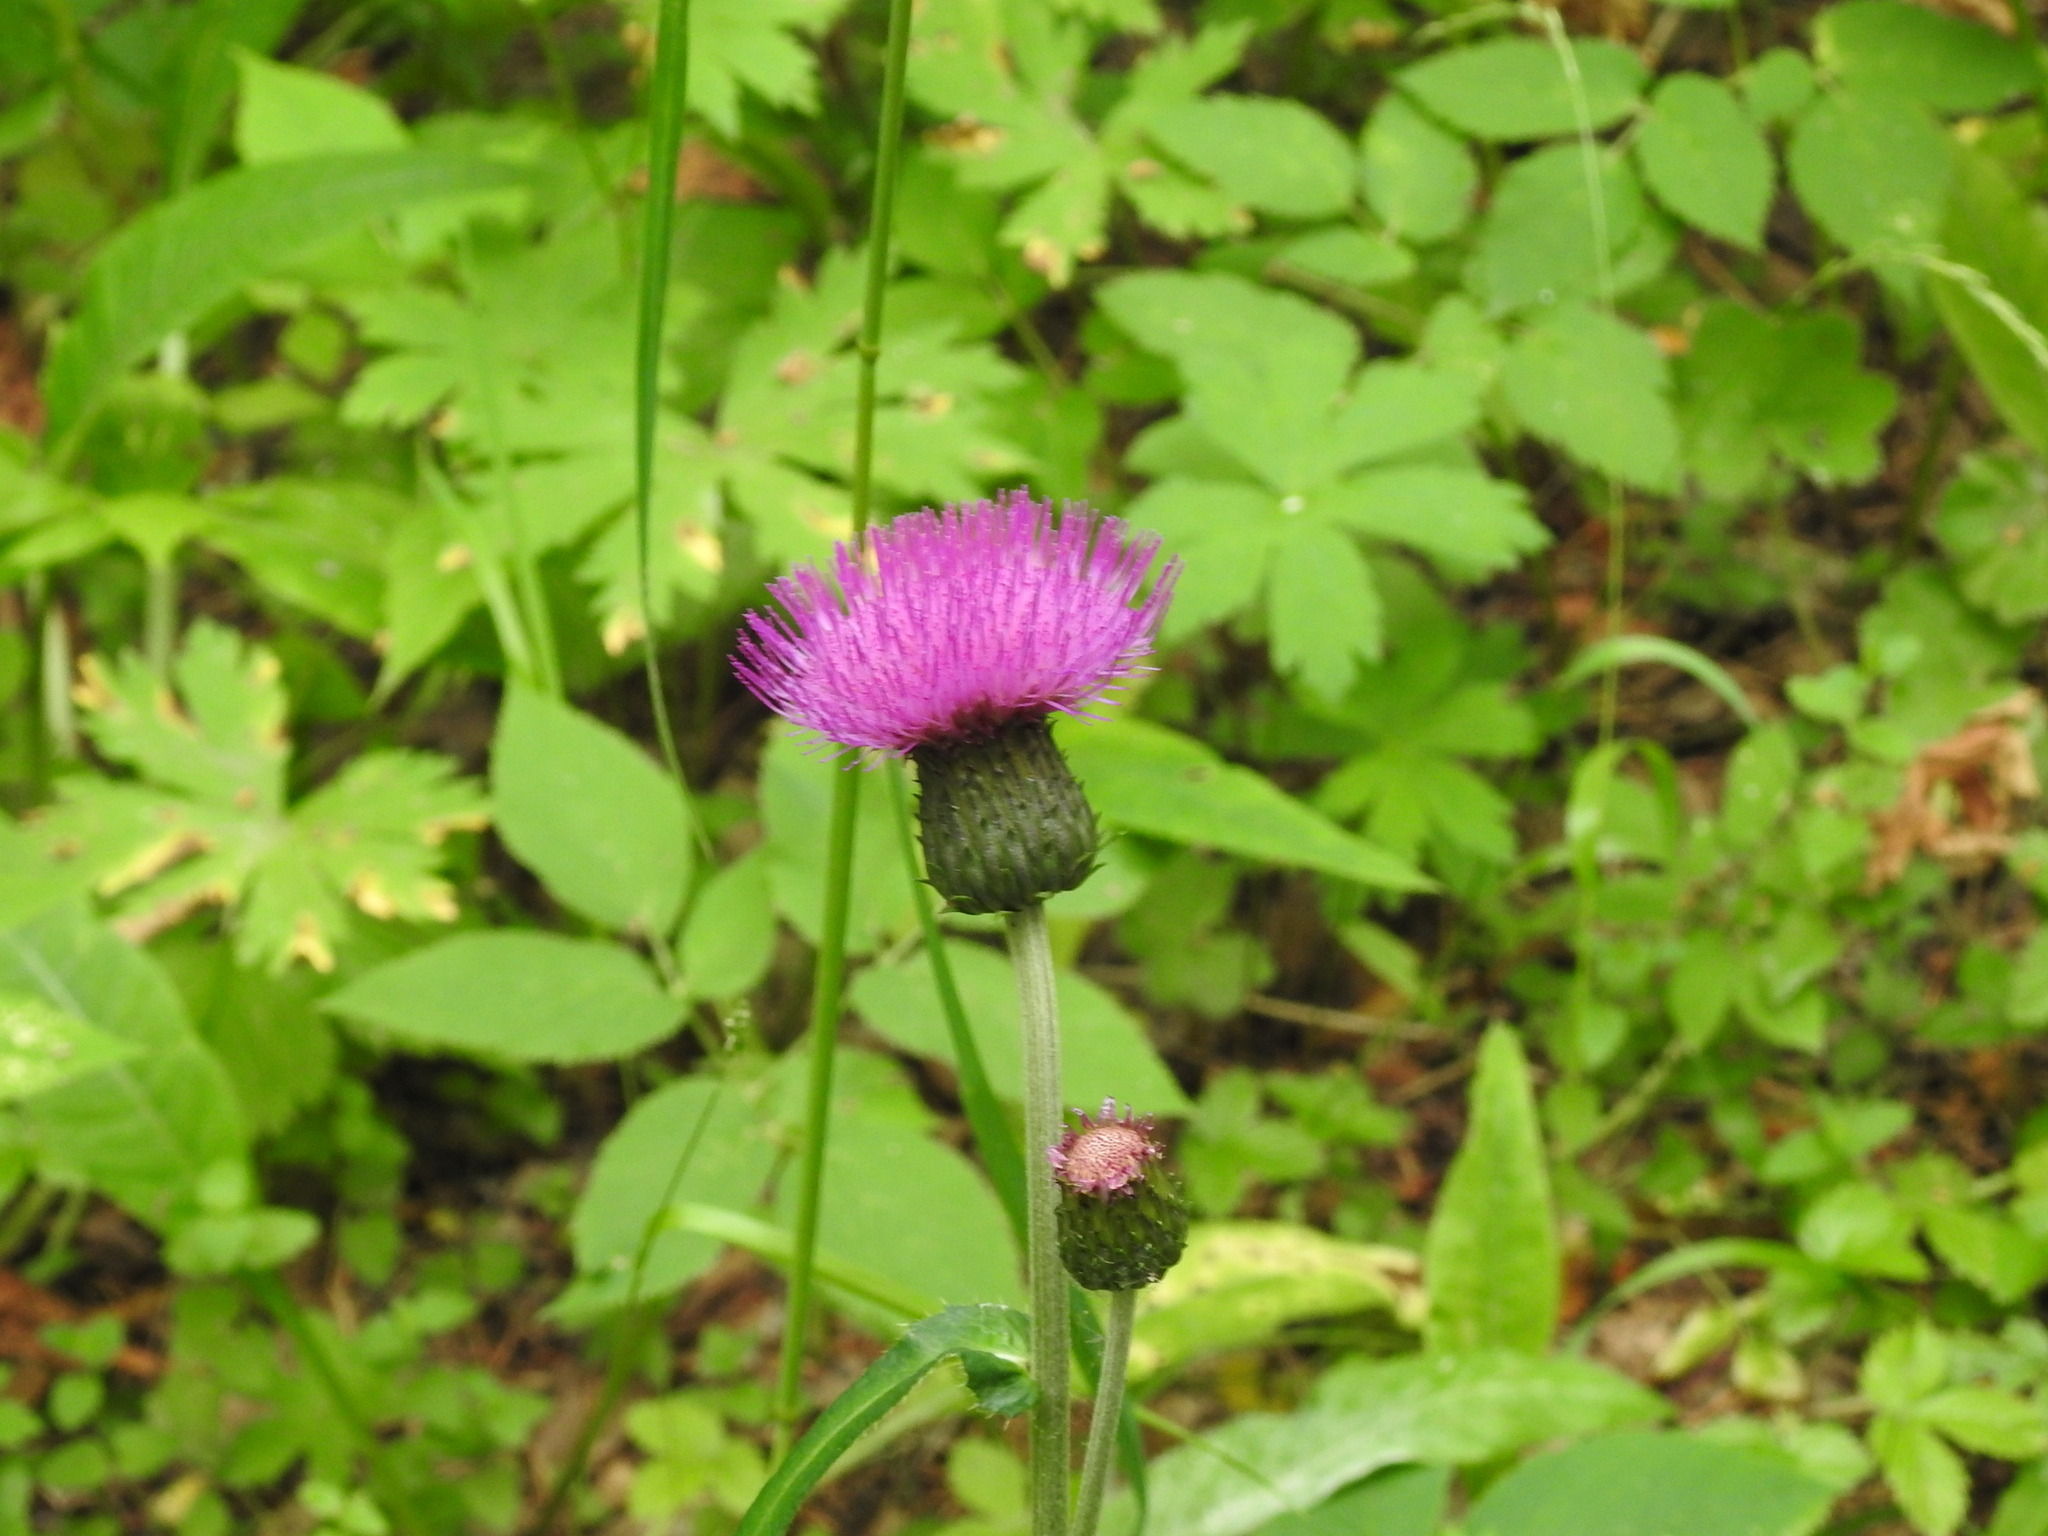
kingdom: Plantae
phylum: Tracheophyta
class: Magnoliopsida
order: Asterales
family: Asteraceae
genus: Cirsium
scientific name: Cirsium heterophyllum
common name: Melancholy thistle
